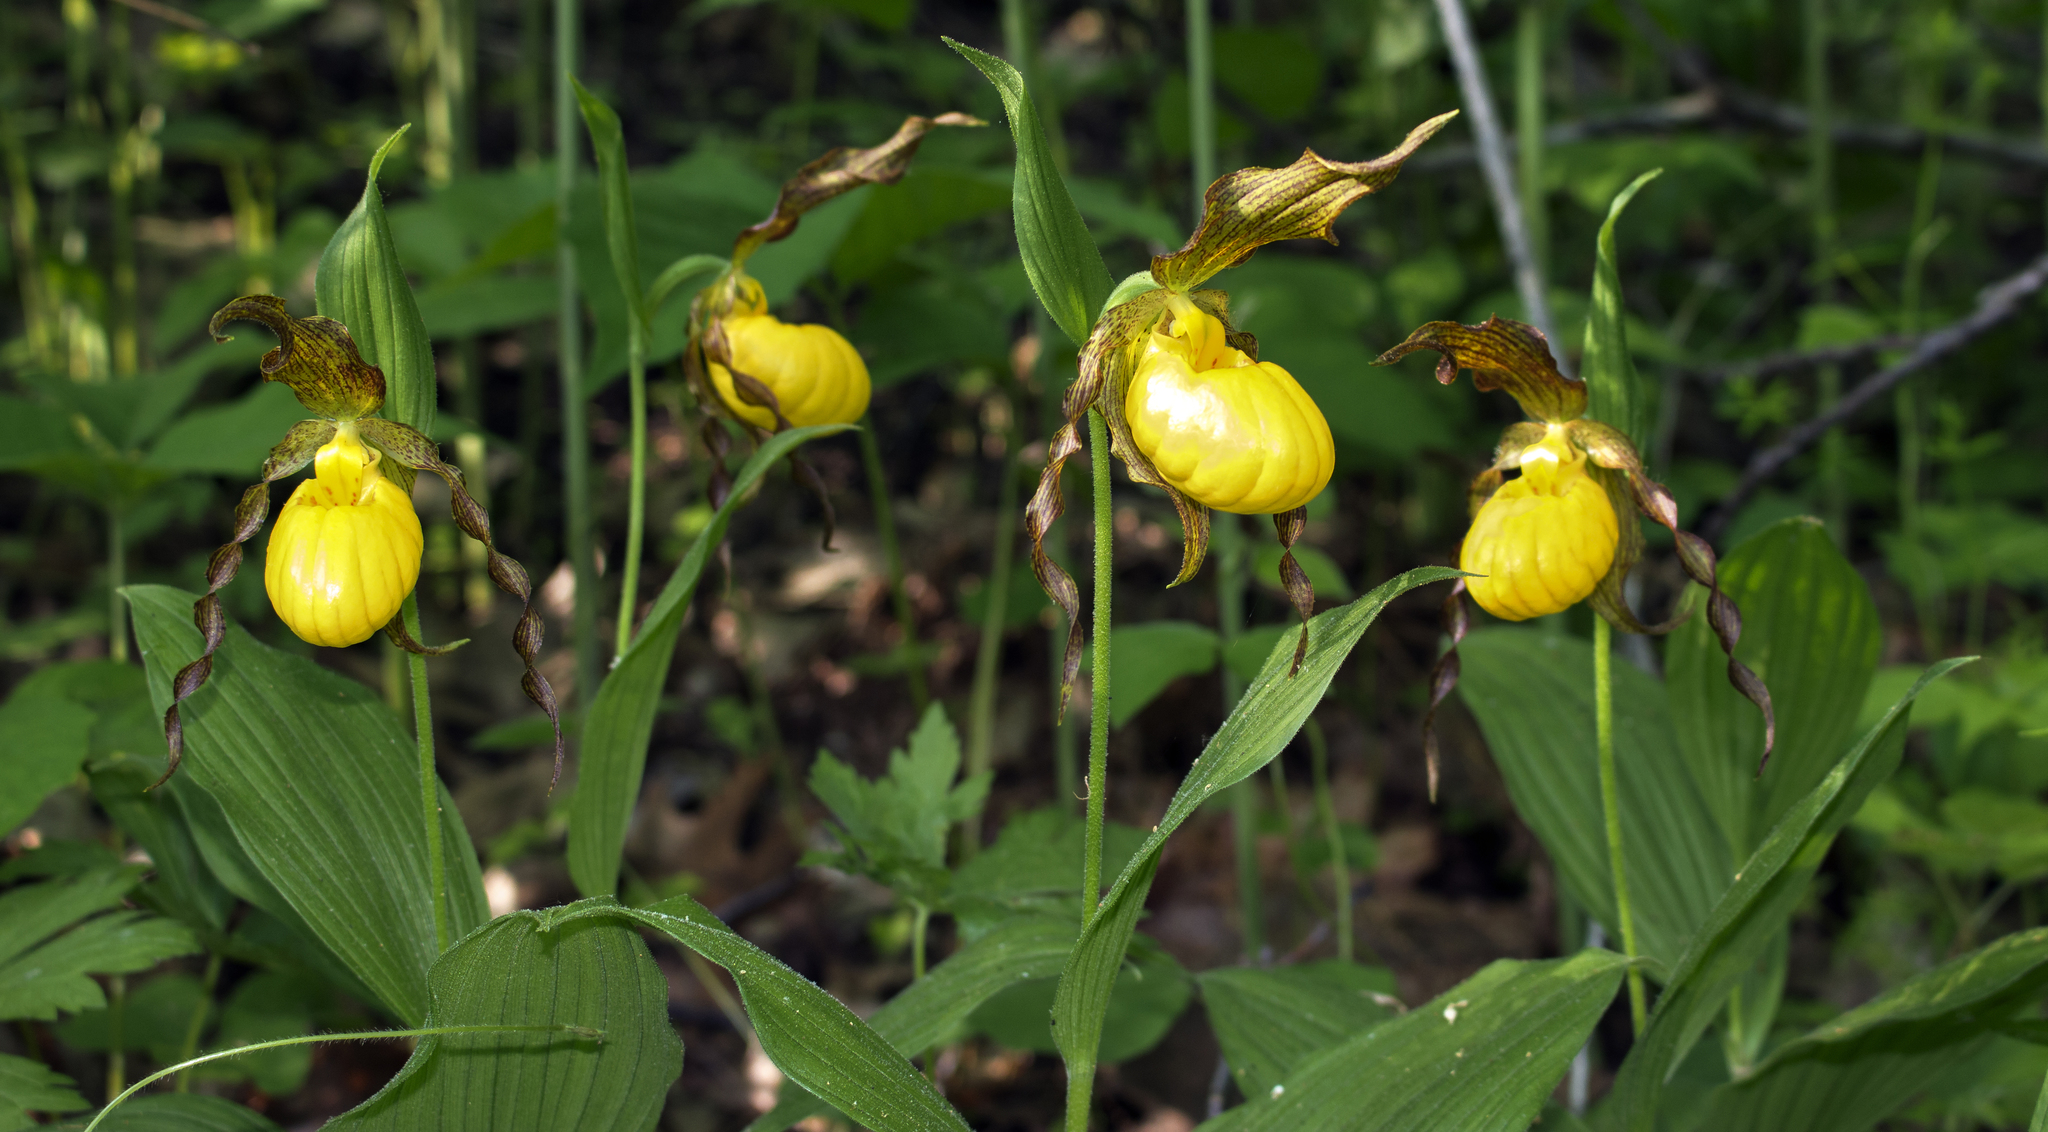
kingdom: Plantae
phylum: Tracheophyta
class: Liliopsida
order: Asparagales
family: Orchidaceae
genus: Cypripedium
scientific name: Cypripedium parviflorum
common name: American yellow lady's-slipper
